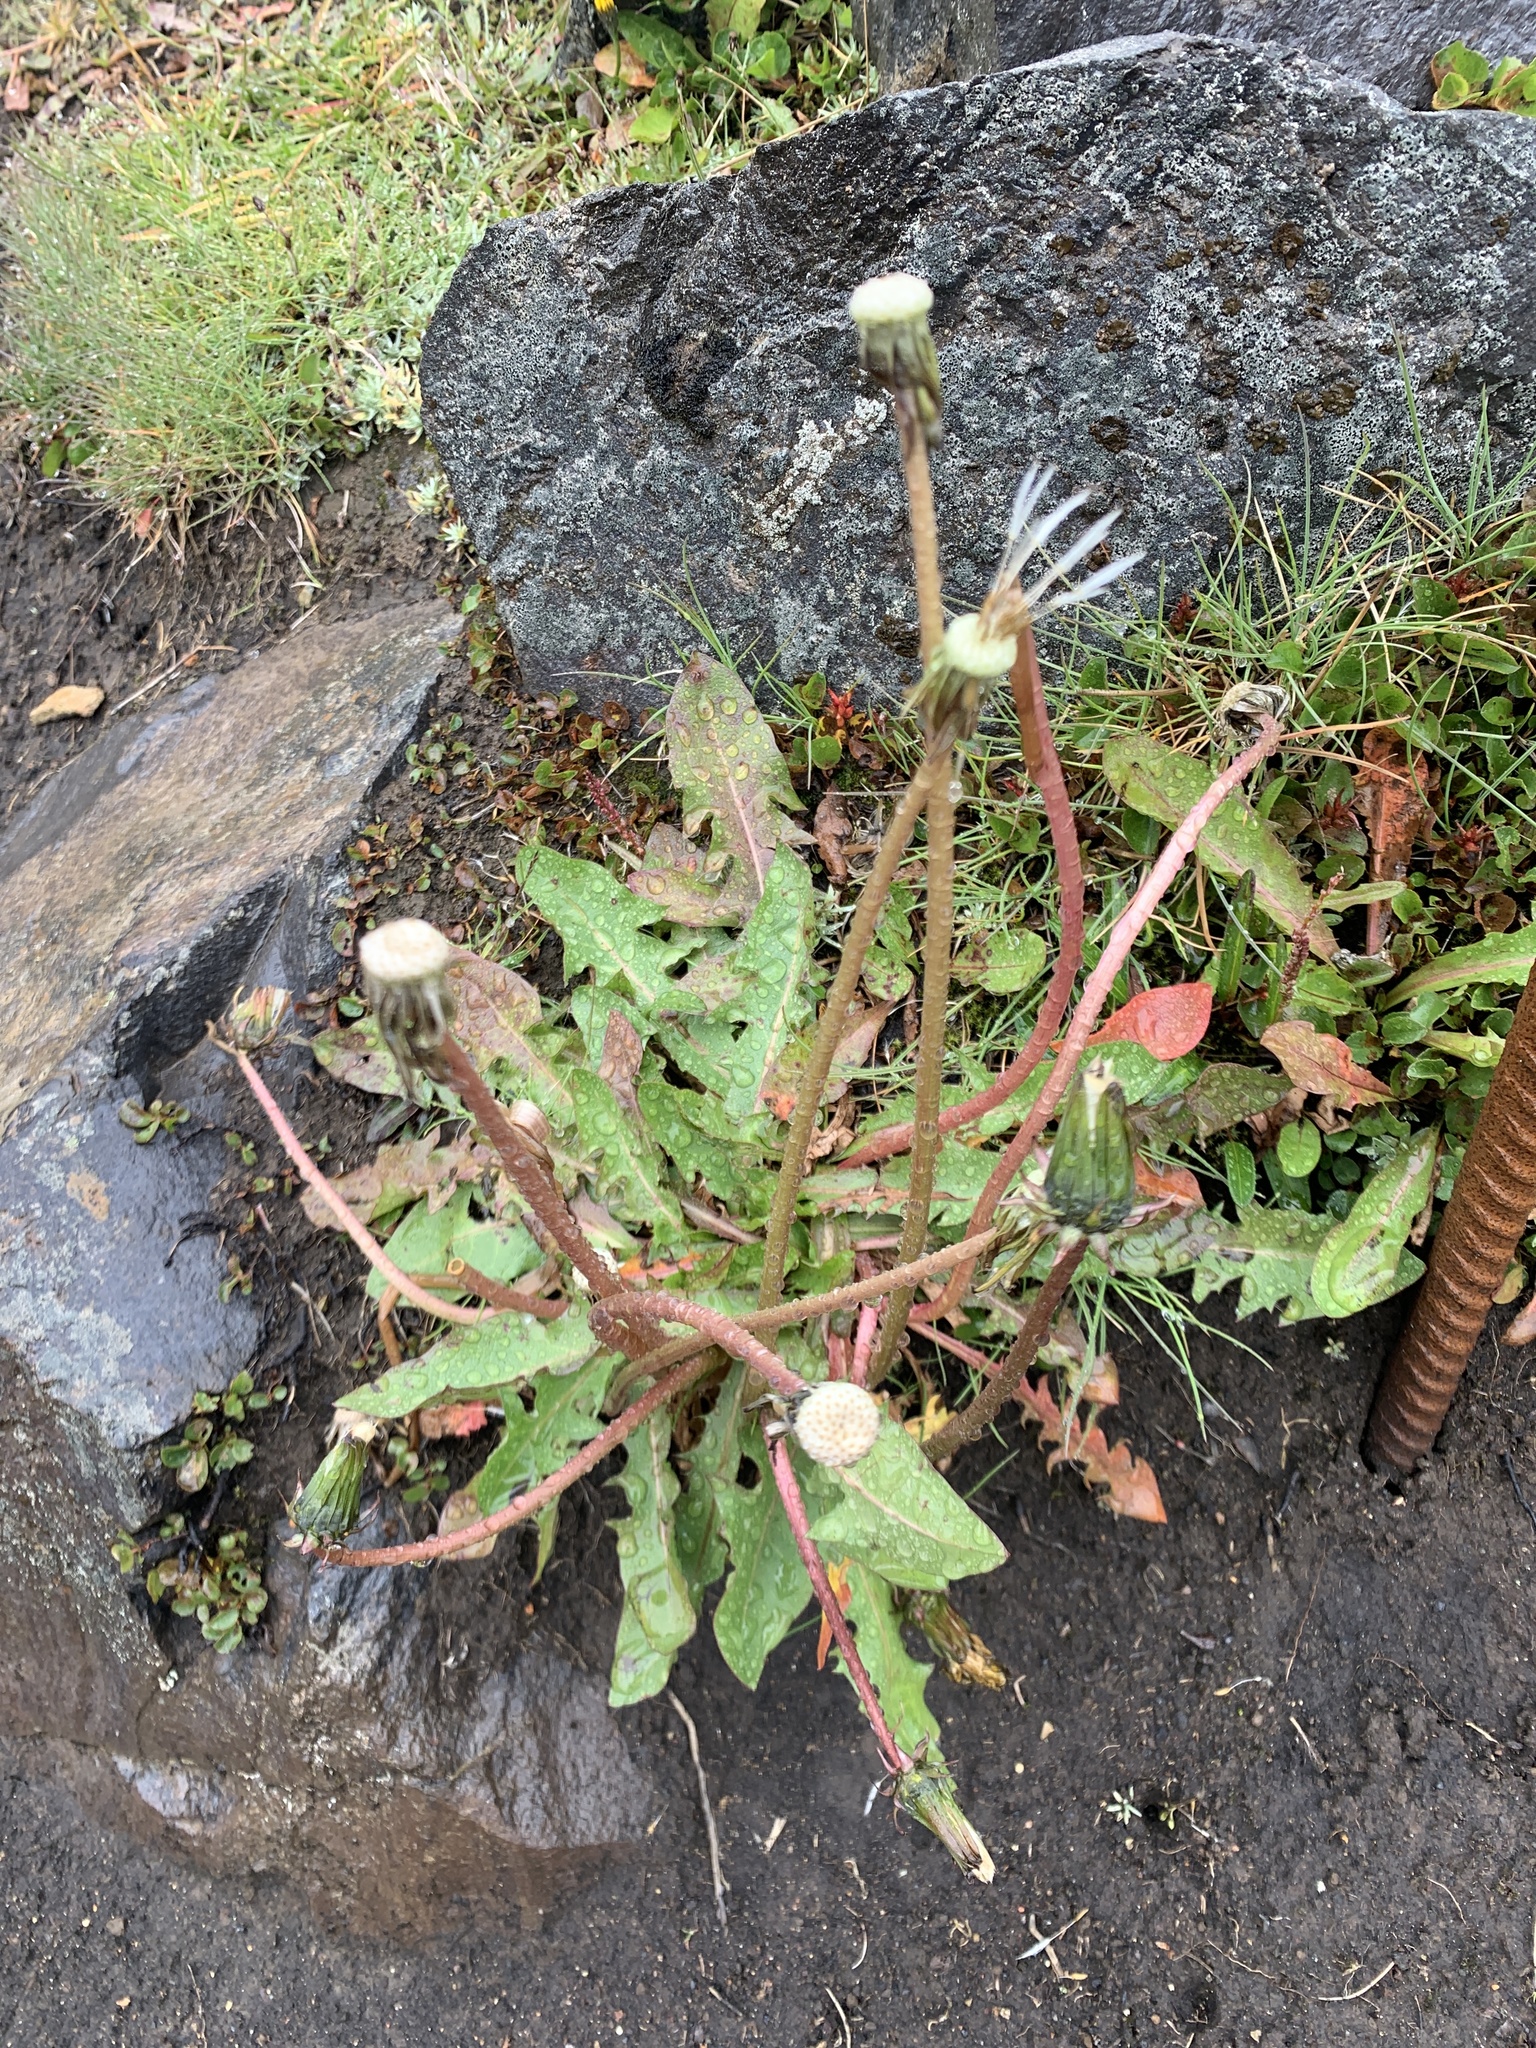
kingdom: Plantae
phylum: Tracheophyta
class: Magnoliopsida
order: Asterales
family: Asteraceae
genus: Taraxacum
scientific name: Taraxacum officinale
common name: Common dandelion
